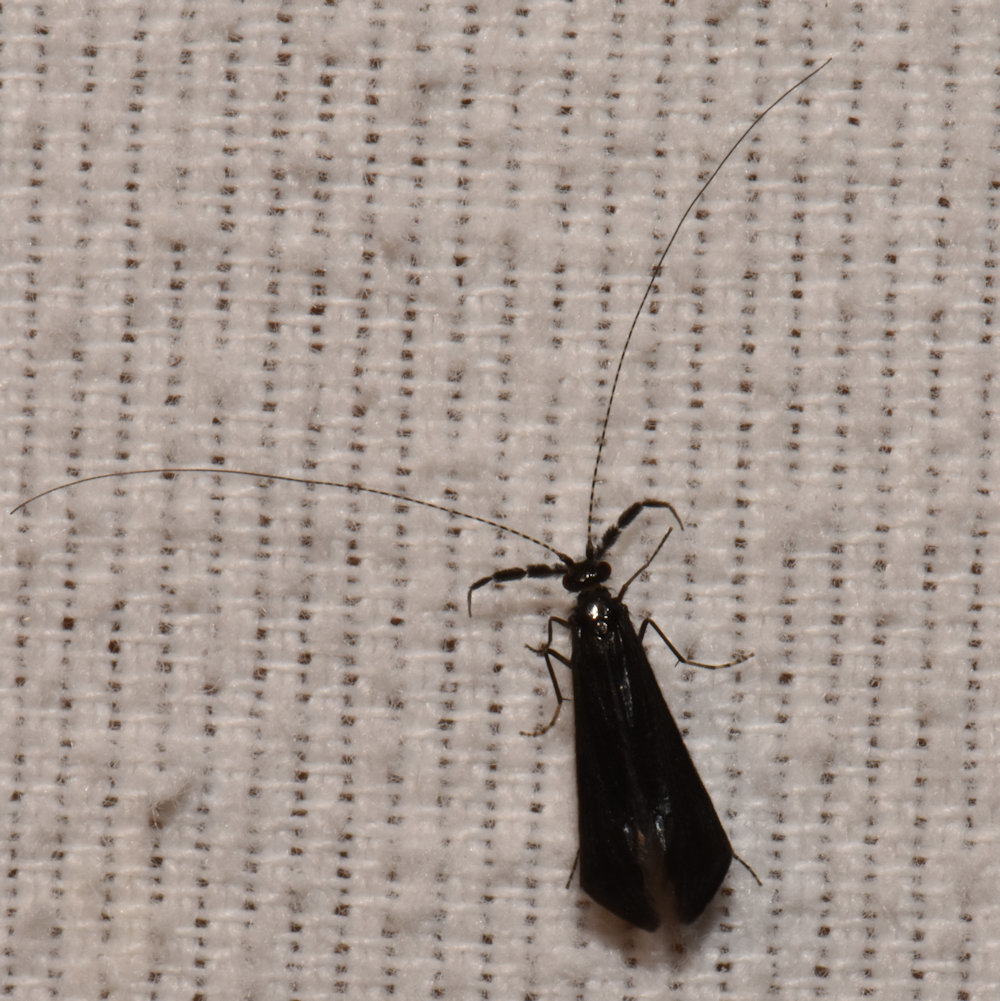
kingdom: Animalia
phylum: Arthropoda
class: Insecta
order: Trichoptera
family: Leptoceridae
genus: Mystacides
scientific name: Mystacides sepulchralis
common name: Black dancer caddisfly
